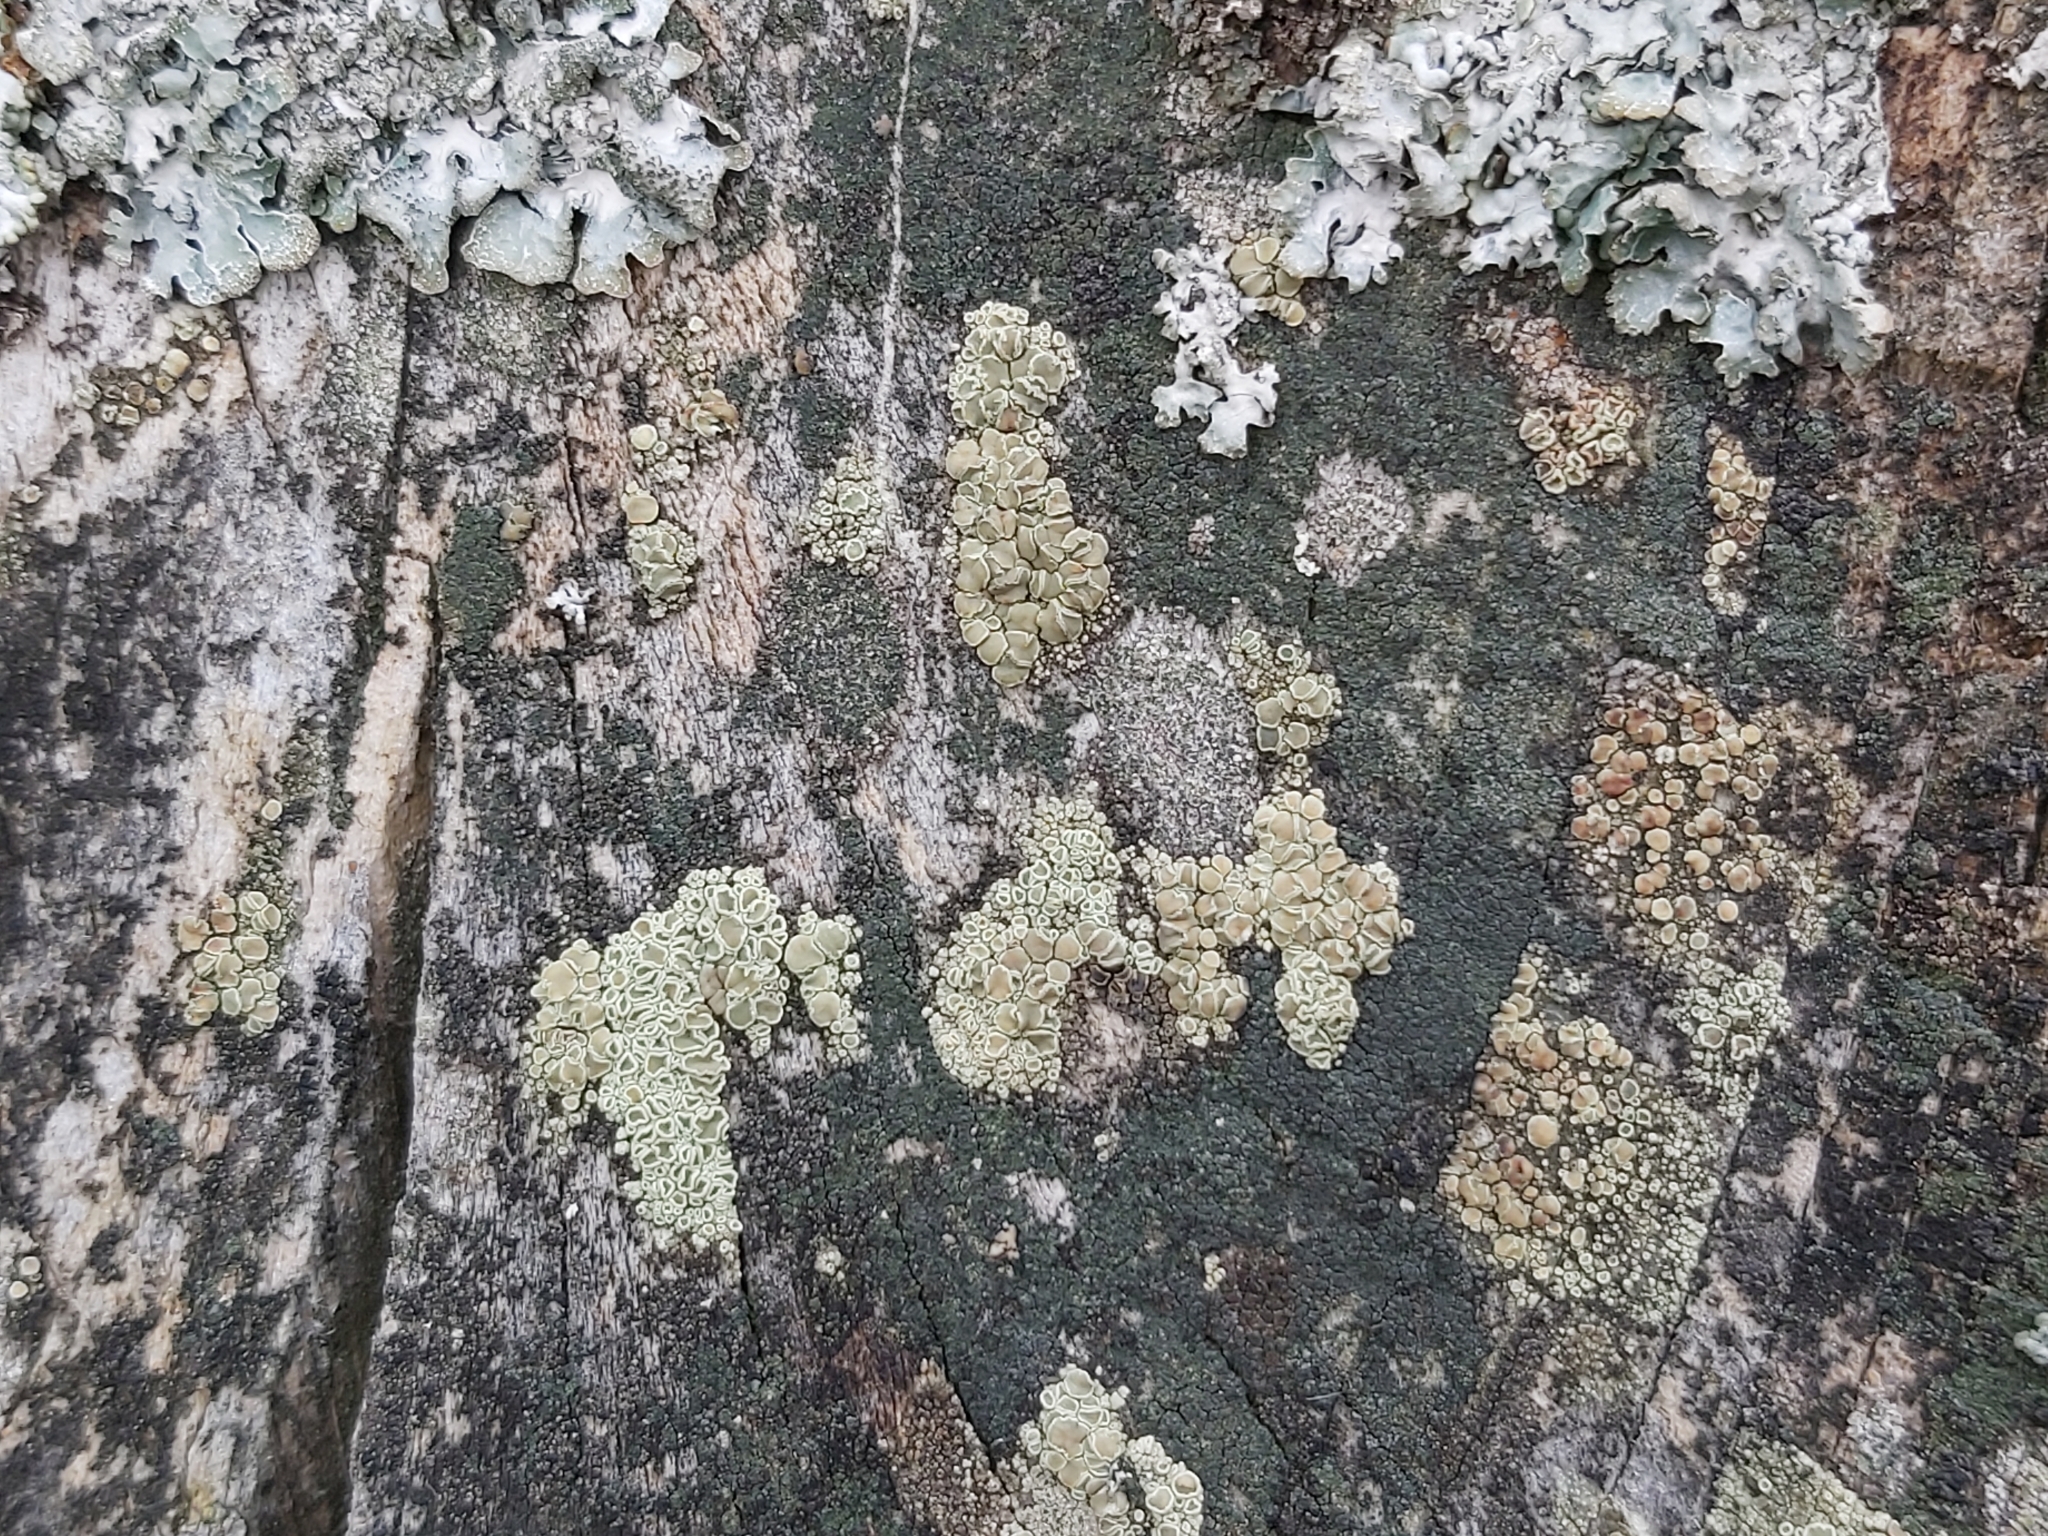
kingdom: Fungi
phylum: Ascomycota
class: Lecanoromycetes
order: Lecanorales
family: Lecanoraceae
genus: Straminella
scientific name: Straminella varia
